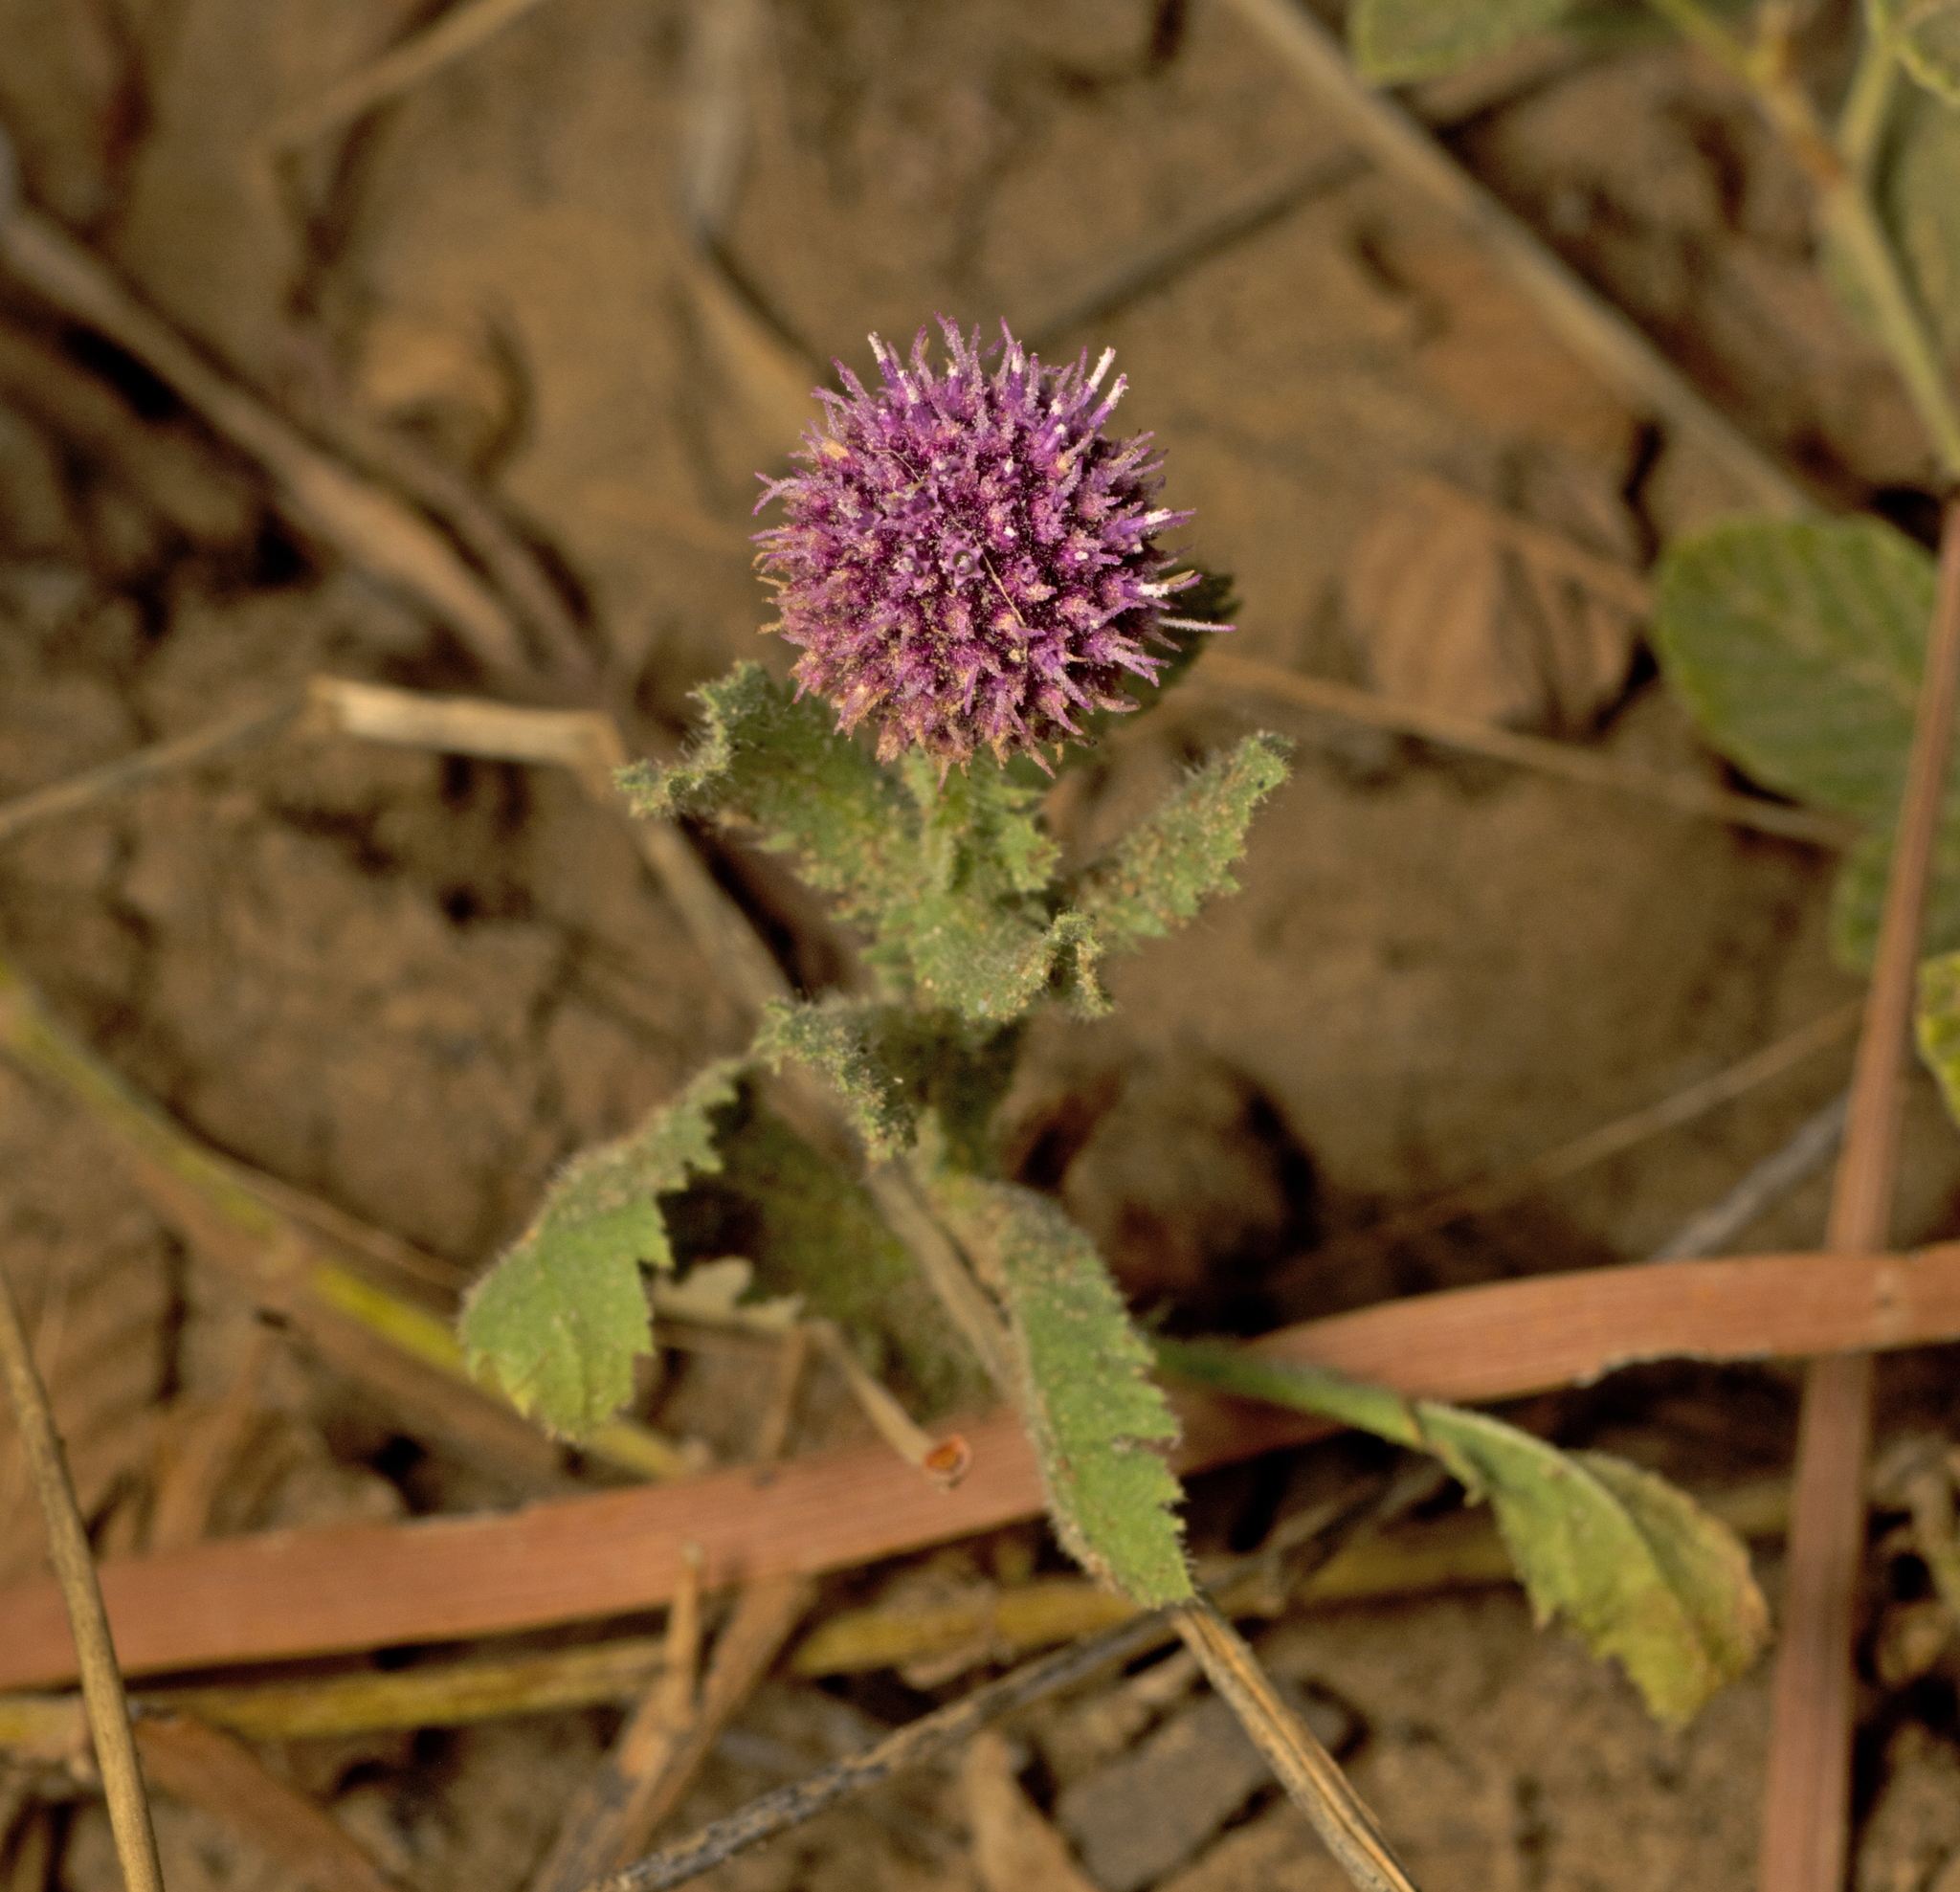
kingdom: Plantae
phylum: Tracheophyta
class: Magnoliopsida
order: Asterales
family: Asteraceae
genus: Sphaeranthus
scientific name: Sphaeranthus indicus
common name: East indian globe thistle
